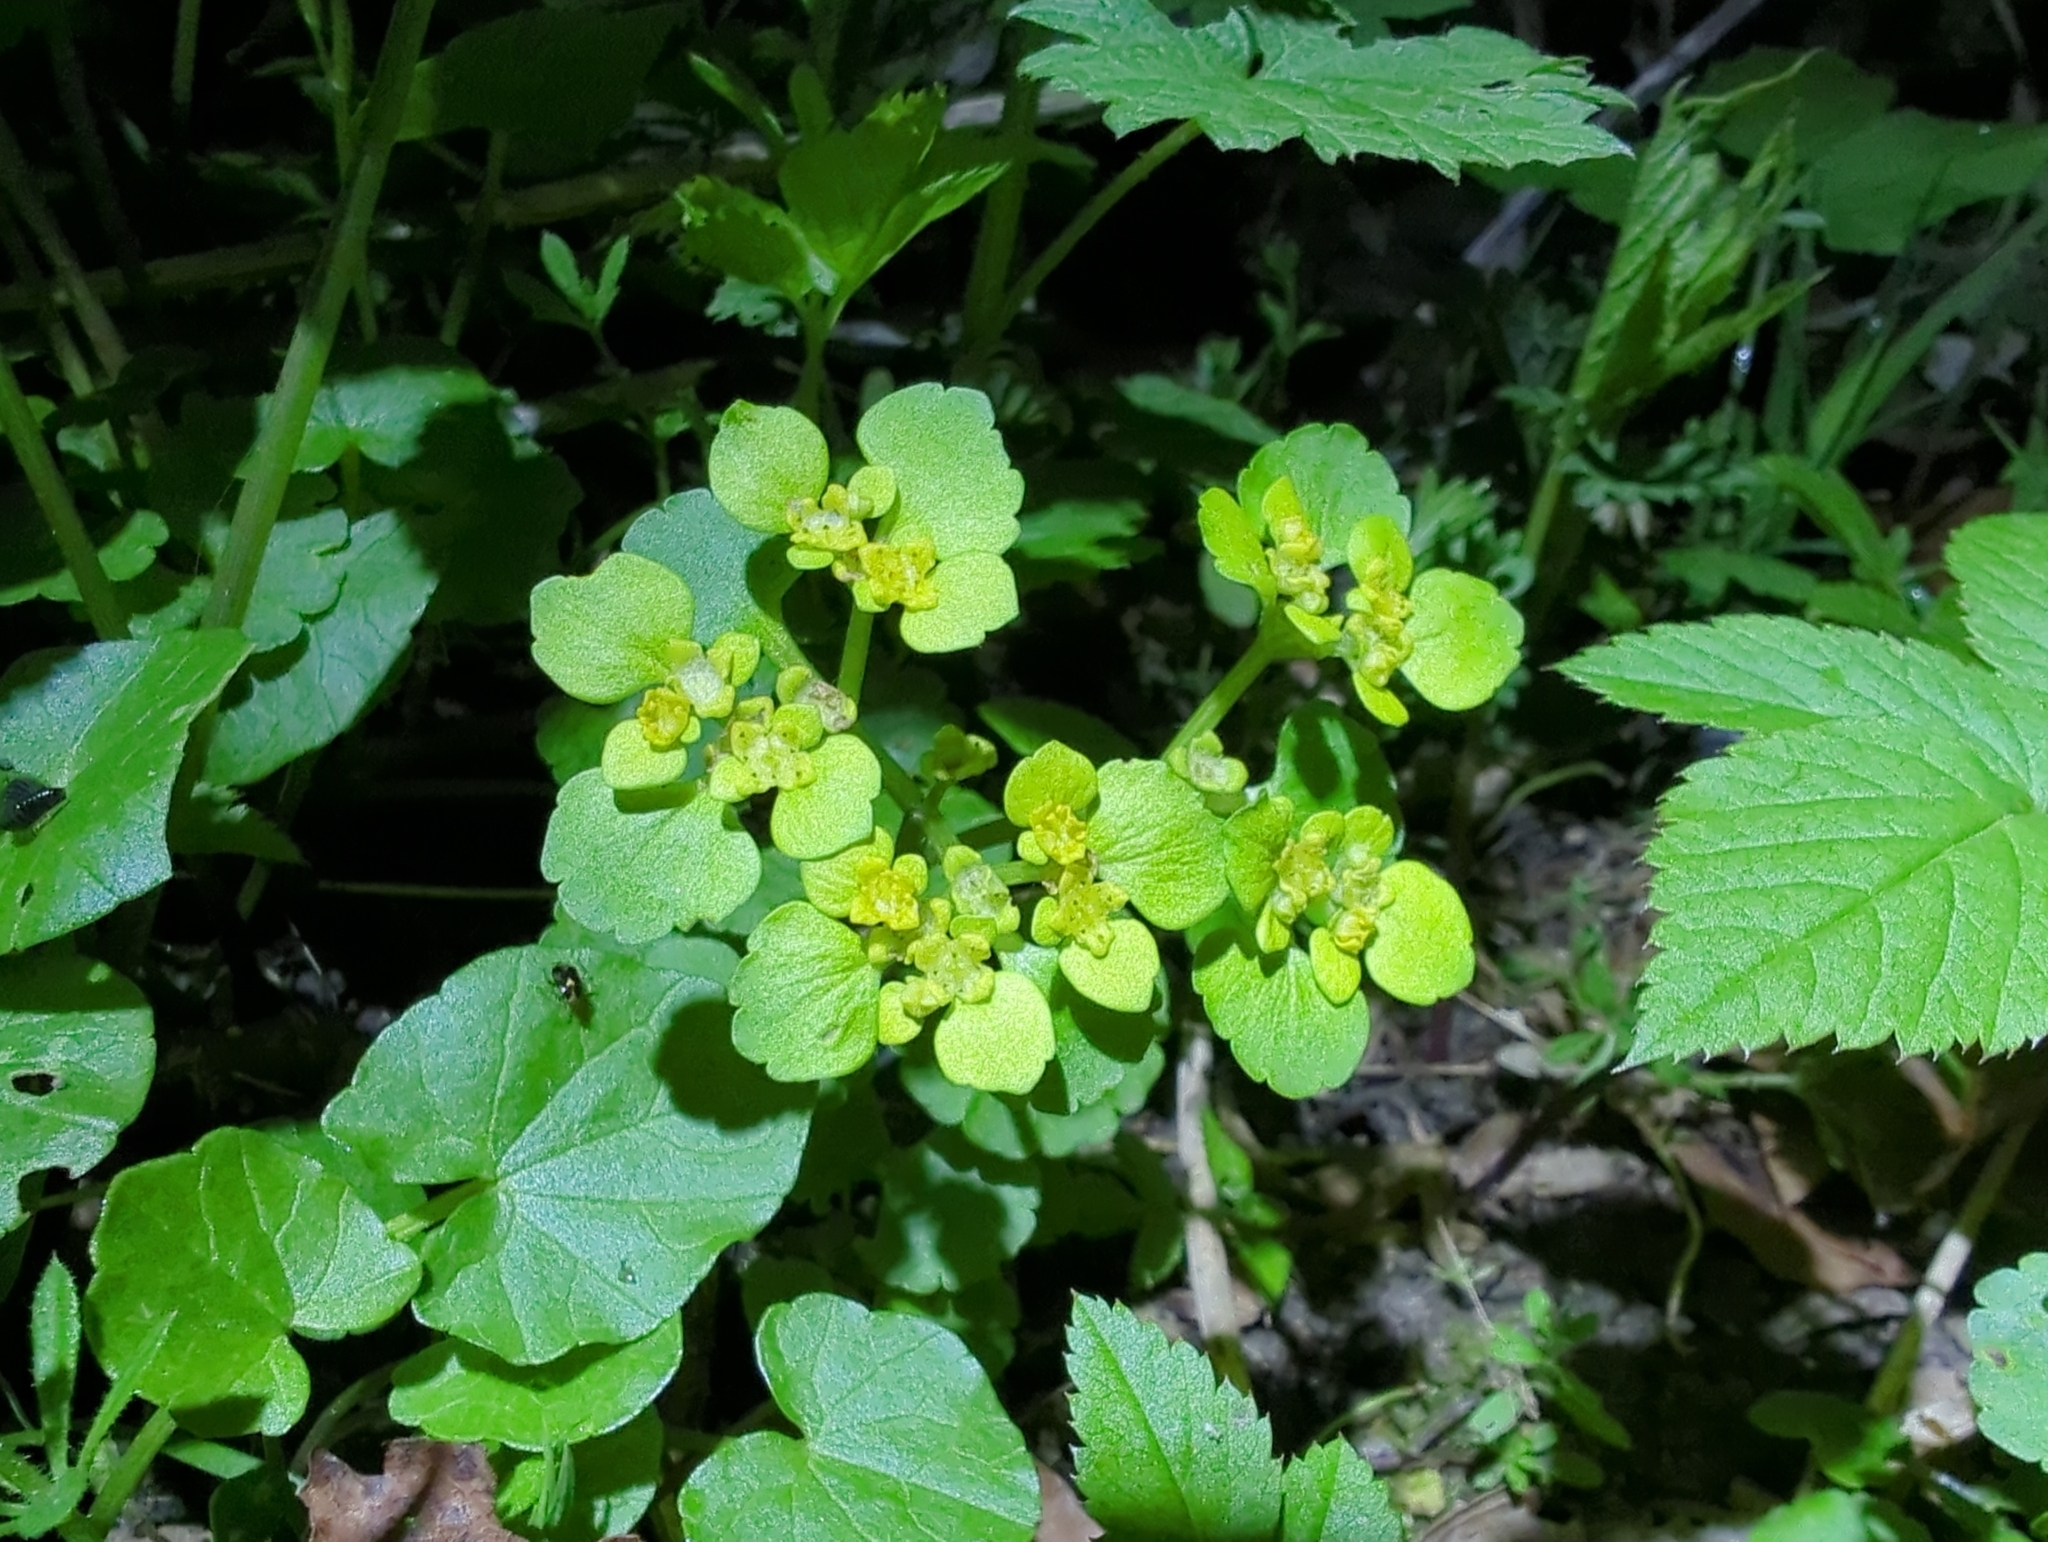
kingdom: Plantae
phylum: Tracheophyta
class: Magnoliopsida
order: Saxifragales
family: Saxifragaceae
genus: Chrysosplenium
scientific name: Chrysosplenium alternifolium
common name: Alternate-leaved golden-saxifrage
